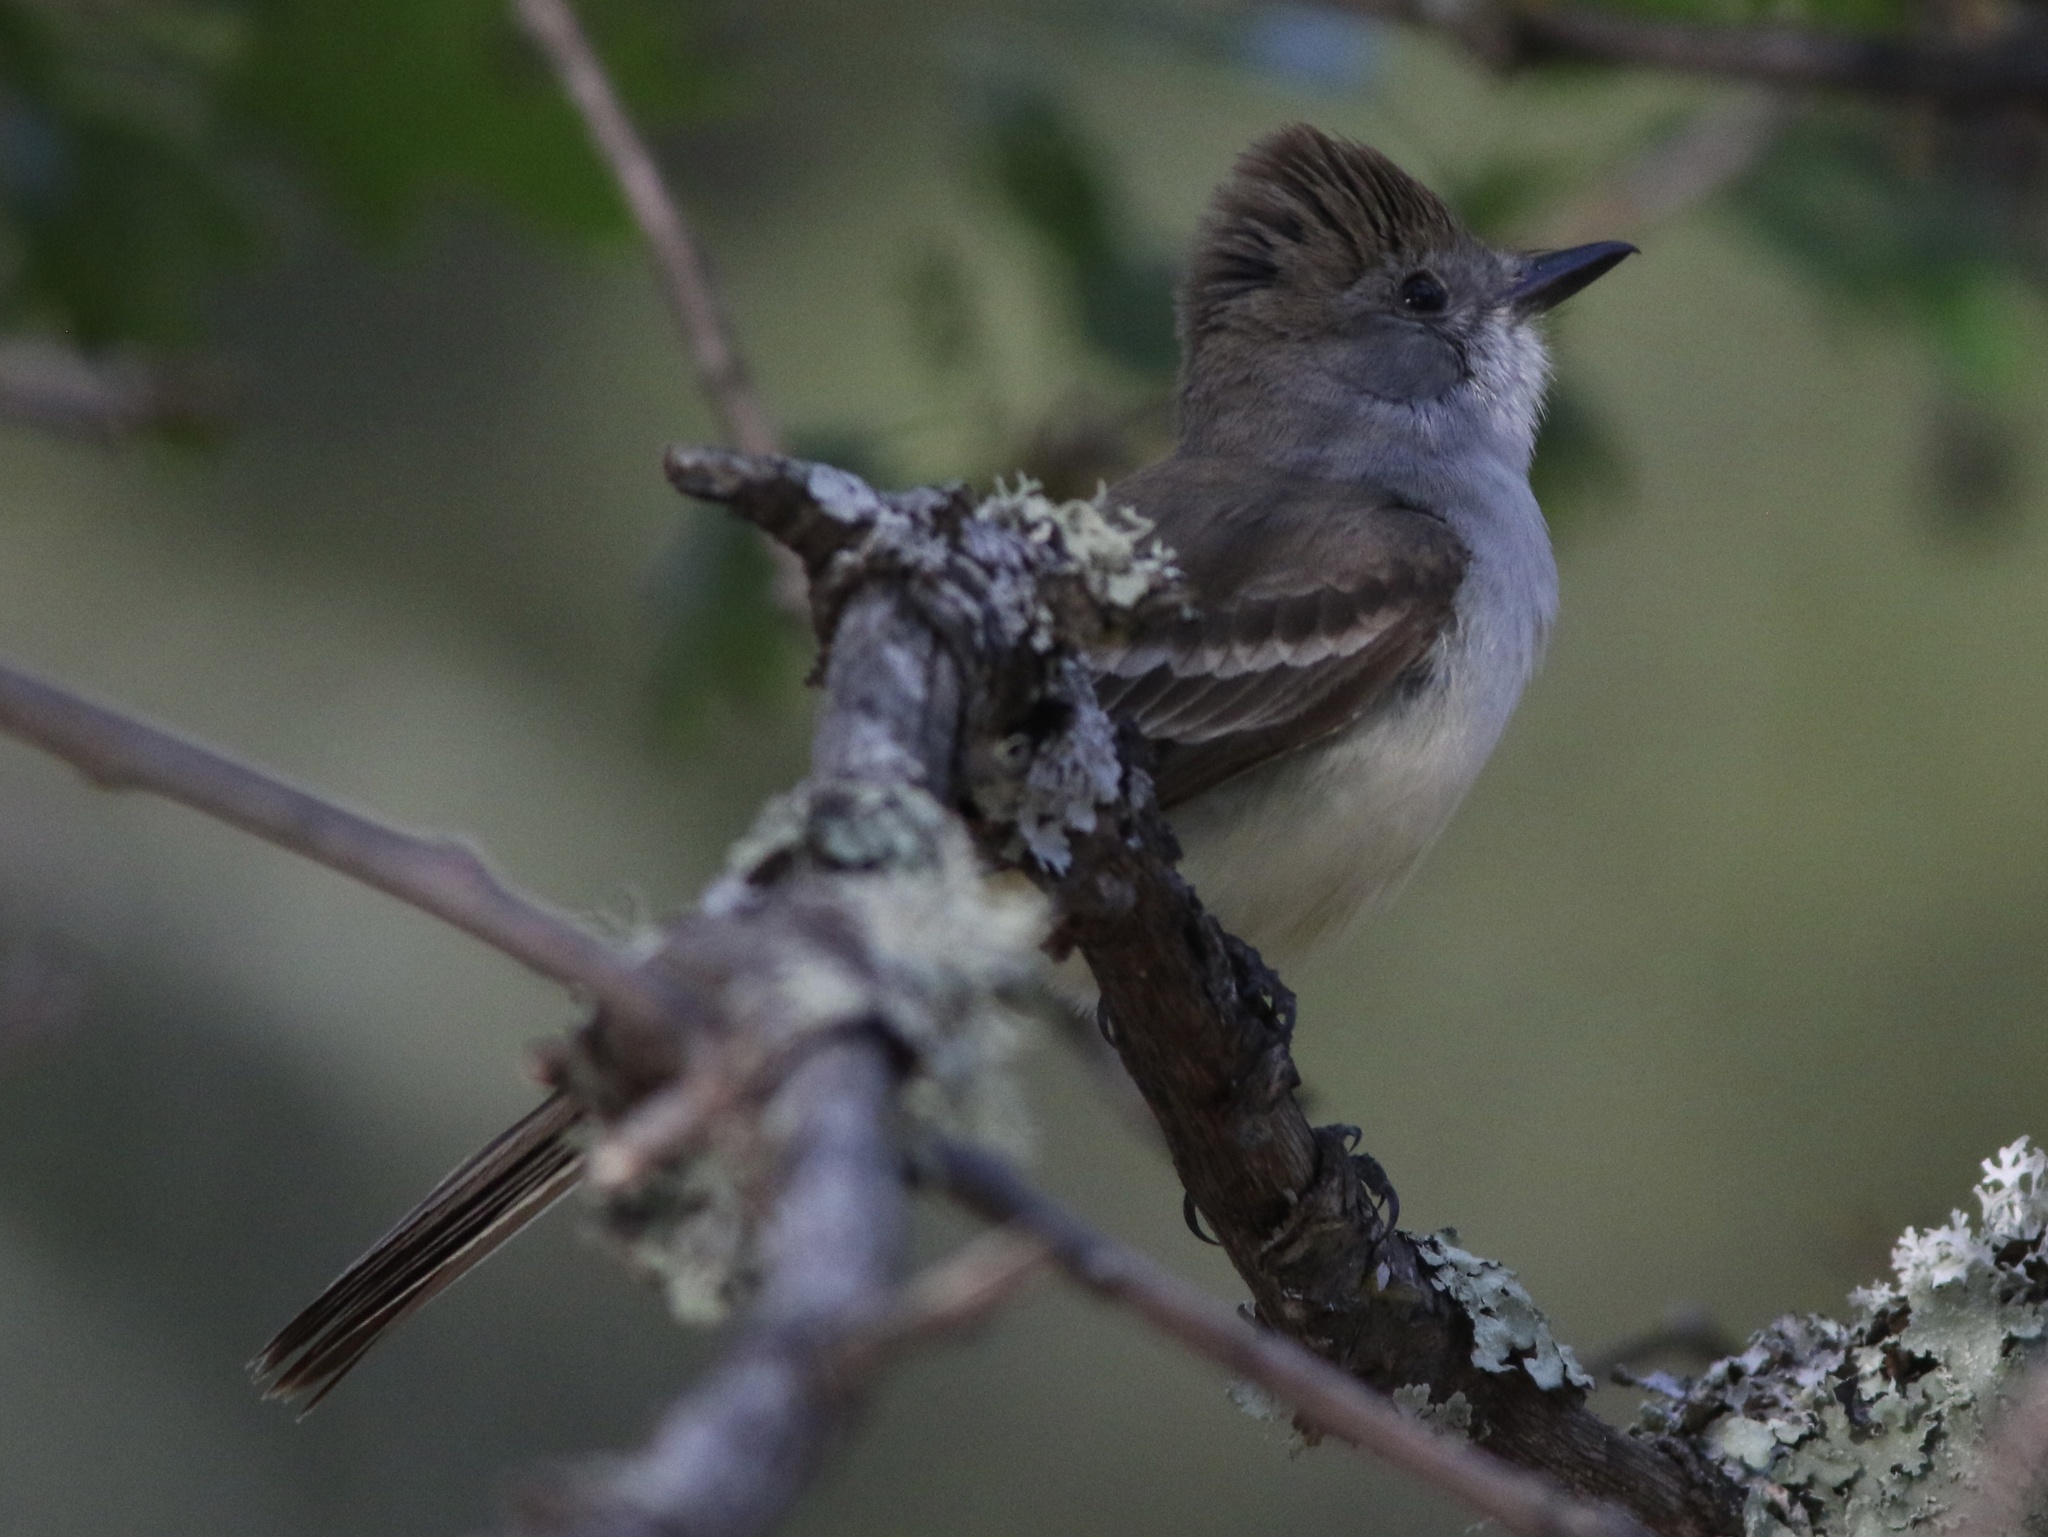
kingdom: Animalia
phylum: Chordata
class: Aves
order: Passeriformes
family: Tyrannidae
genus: Myiarchus
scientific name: Myiarchus cinerascens
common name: Ash-throated flycatcher
